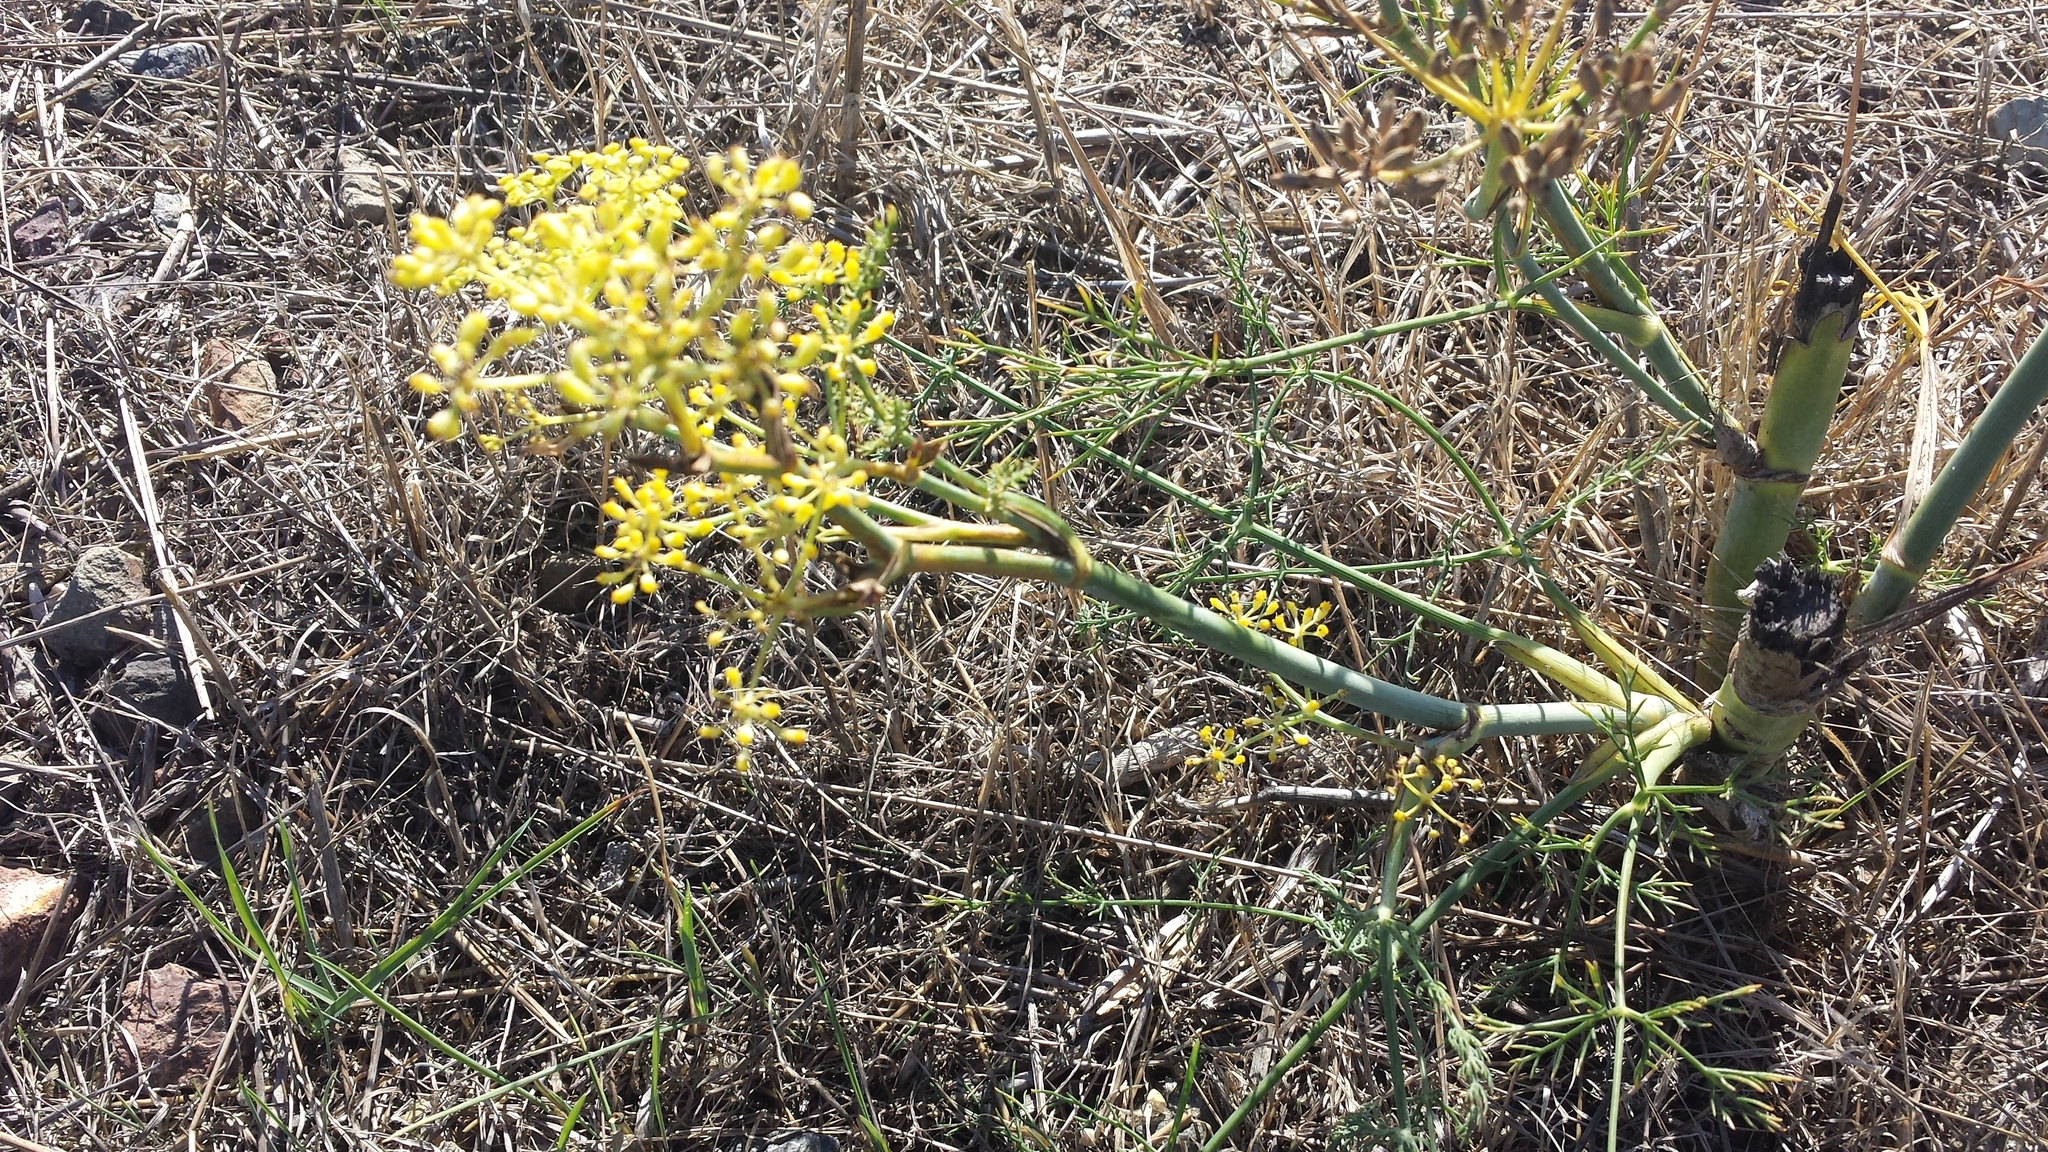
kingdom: Plantae
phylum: Tracheophyta
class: Magnoliopsida
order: Apiales
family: Apiaceae
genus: Foeniculum
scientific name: Foeniculum vulgare
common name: Fennel
